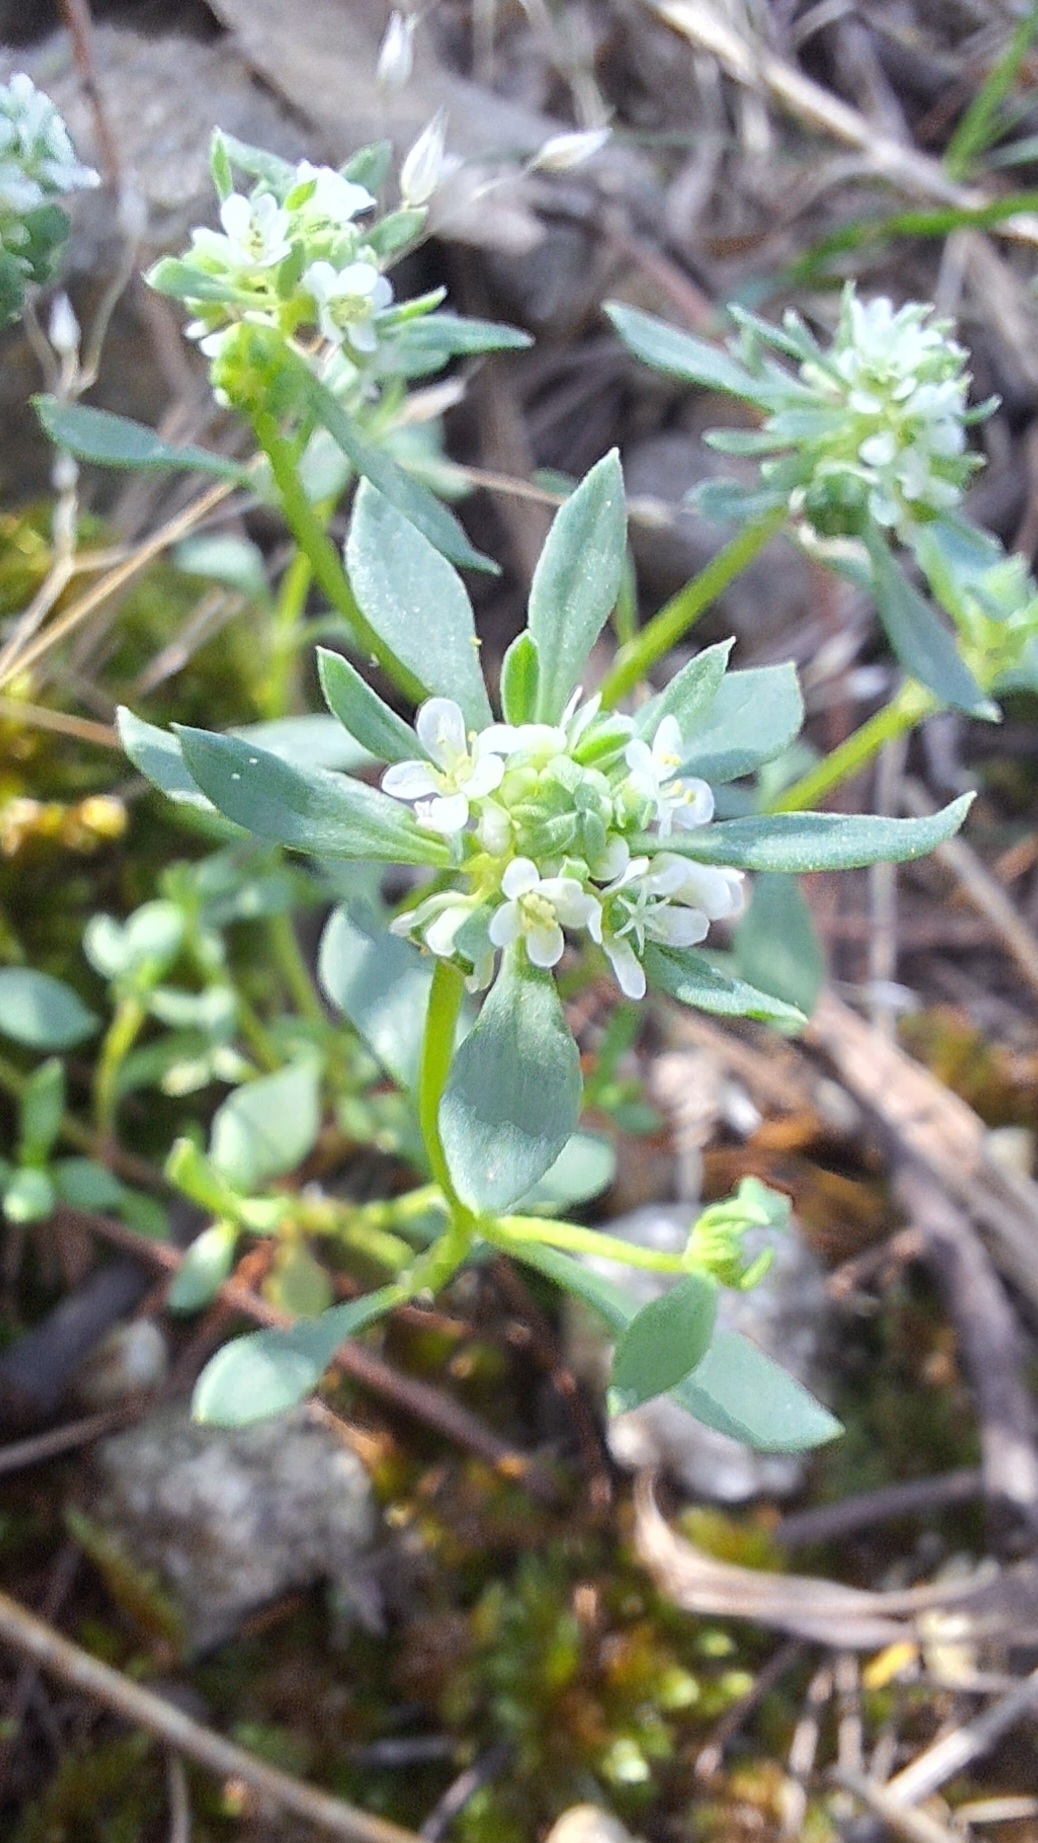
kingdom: Plantae
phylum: Tracheophyta
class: Magnoliopsida
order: Malpighiales
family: Phyllanthaceae
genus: Poranthera
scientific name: Poranthera microphylla
